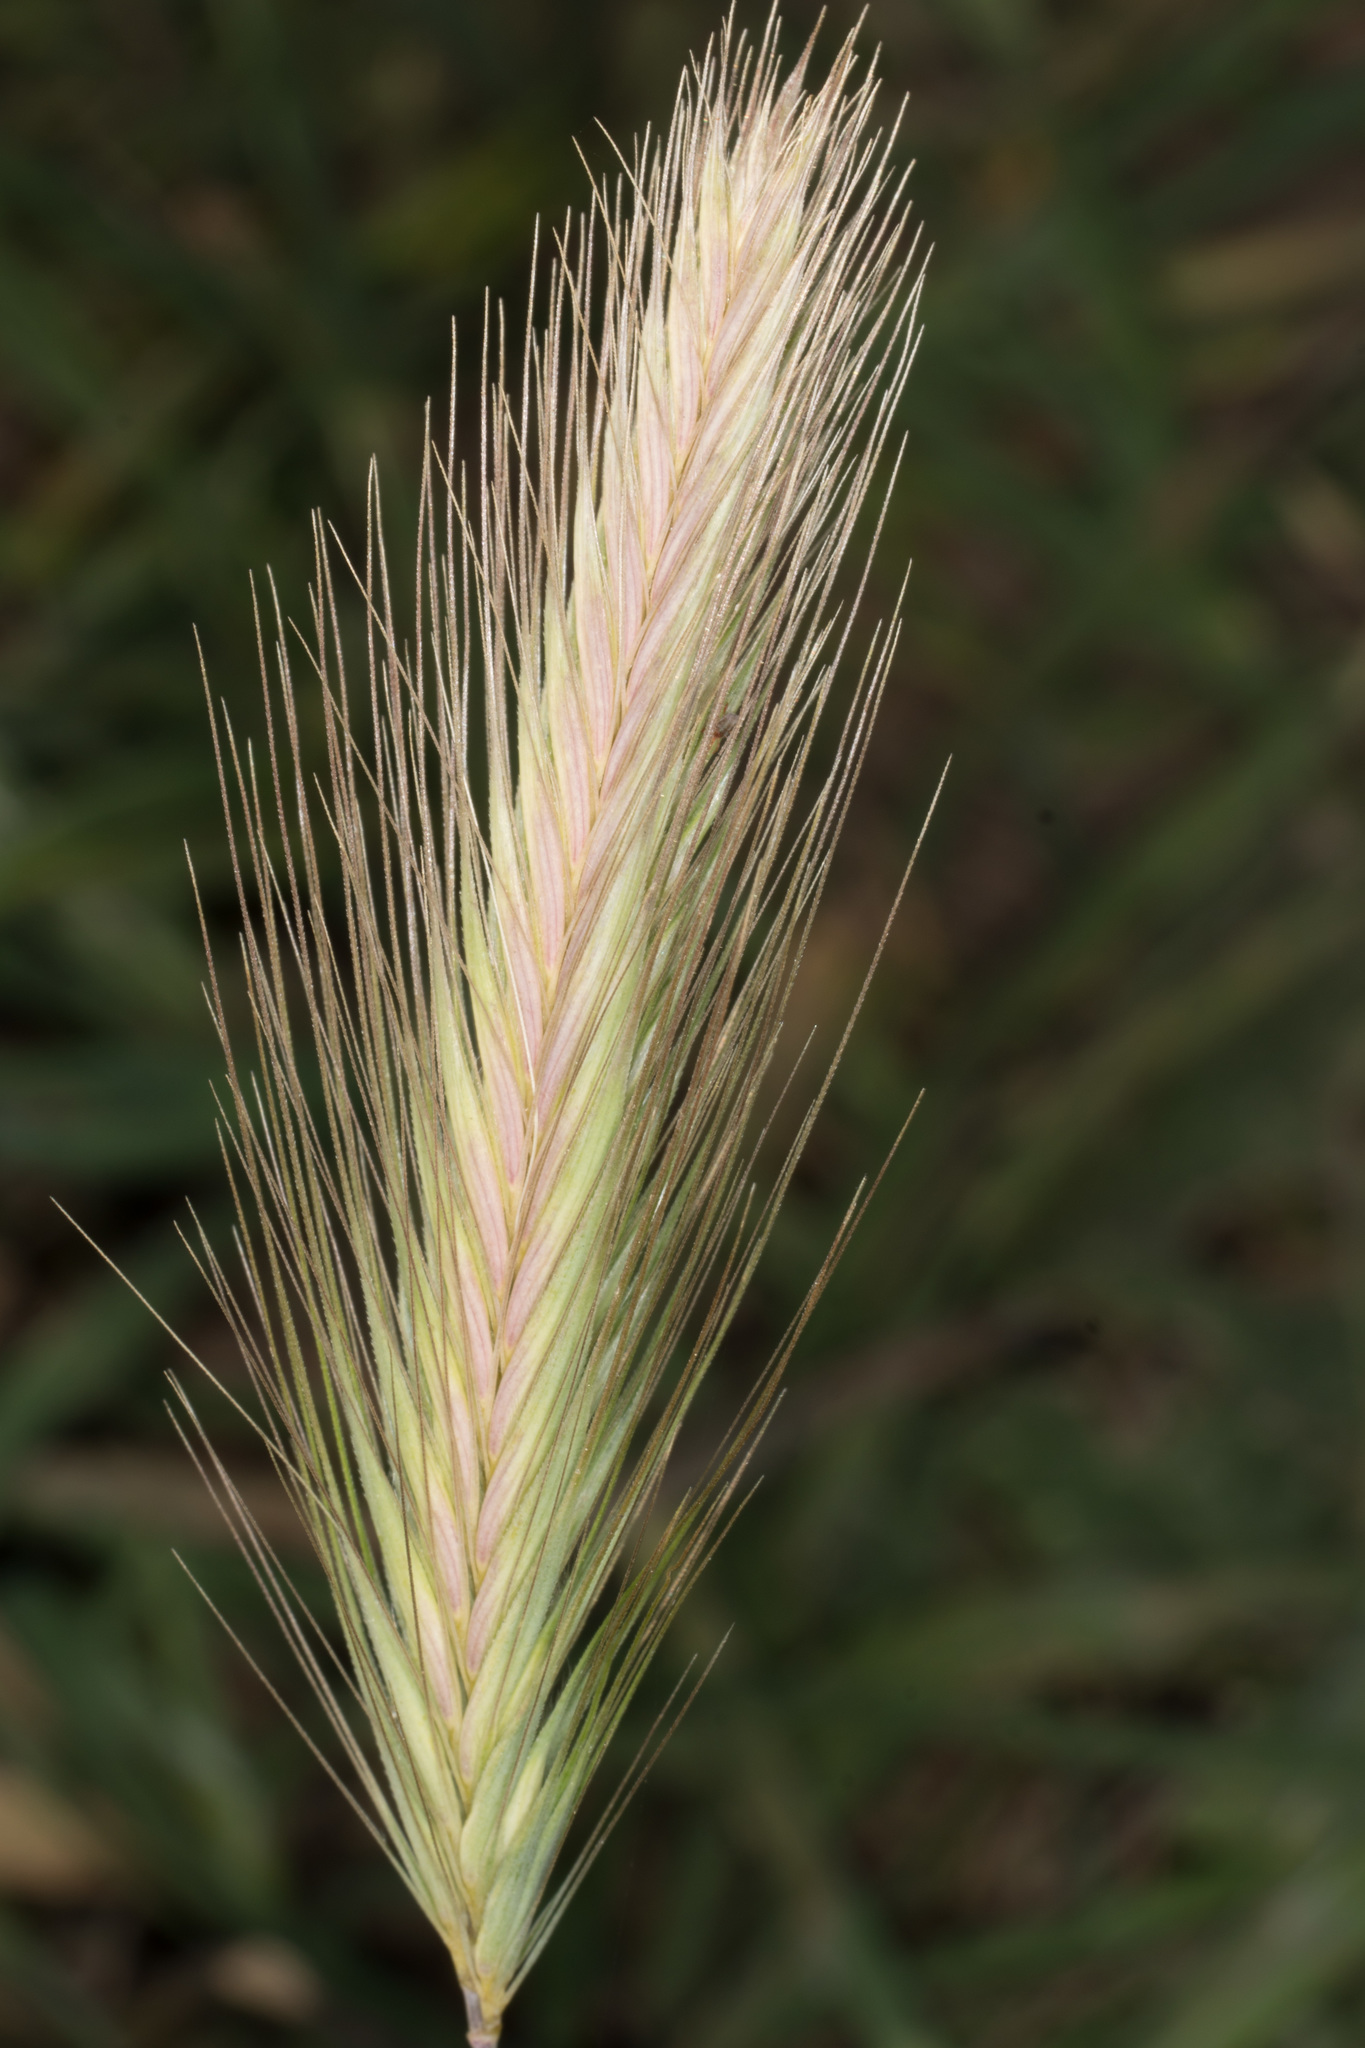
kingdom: Plantae
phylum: Tracheophyta
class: Liliopsida
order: Poales
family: Poaceae
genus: Hordeum
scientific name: Hordeum murinum
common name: Wall barley
